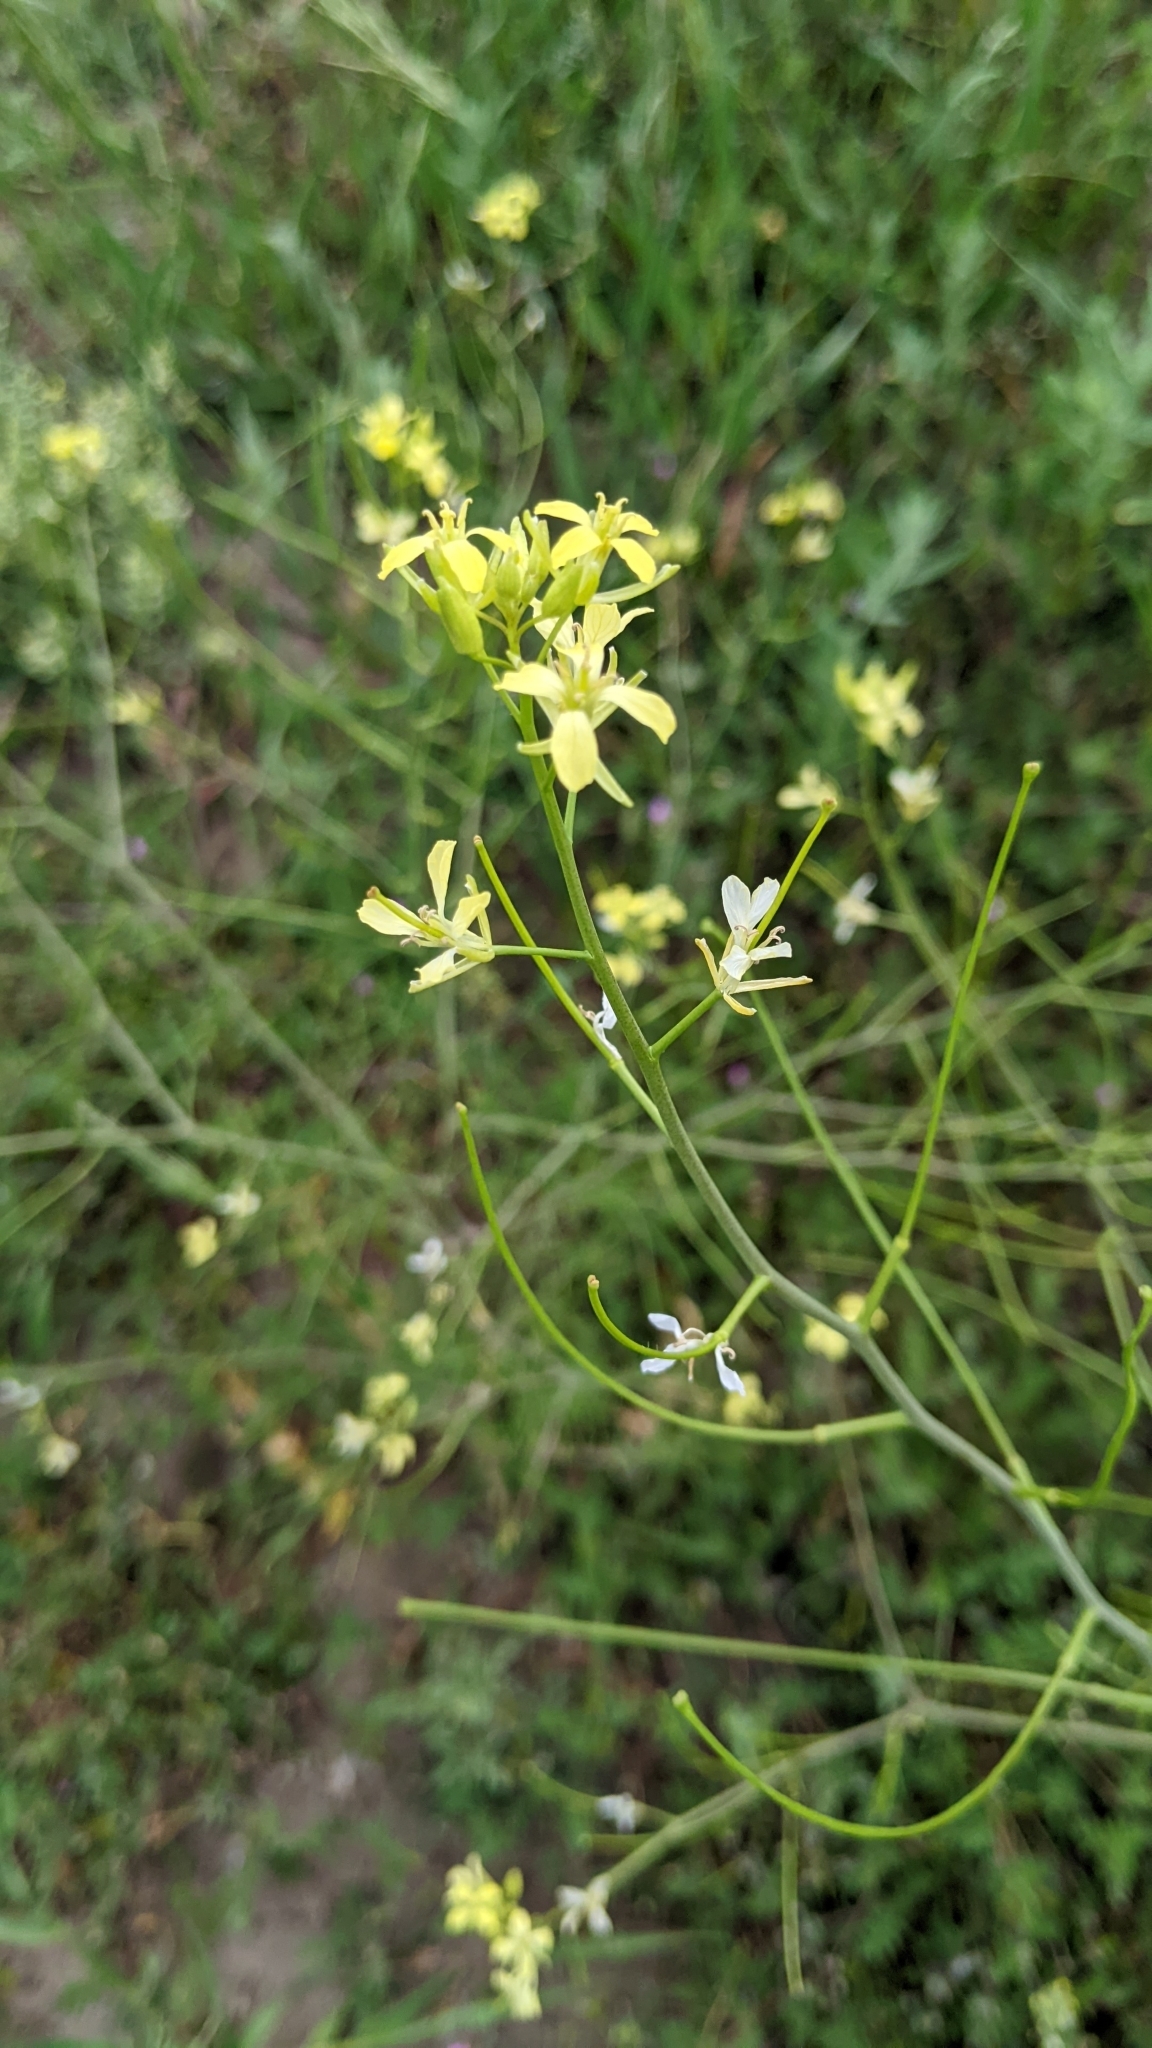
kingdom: Plantae
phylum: Tracheophyta
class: Magnoliopsida
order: Fabales
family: Fabaceae
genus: Melilotus
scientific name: Melilotus officinalis
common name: Sweetclover
